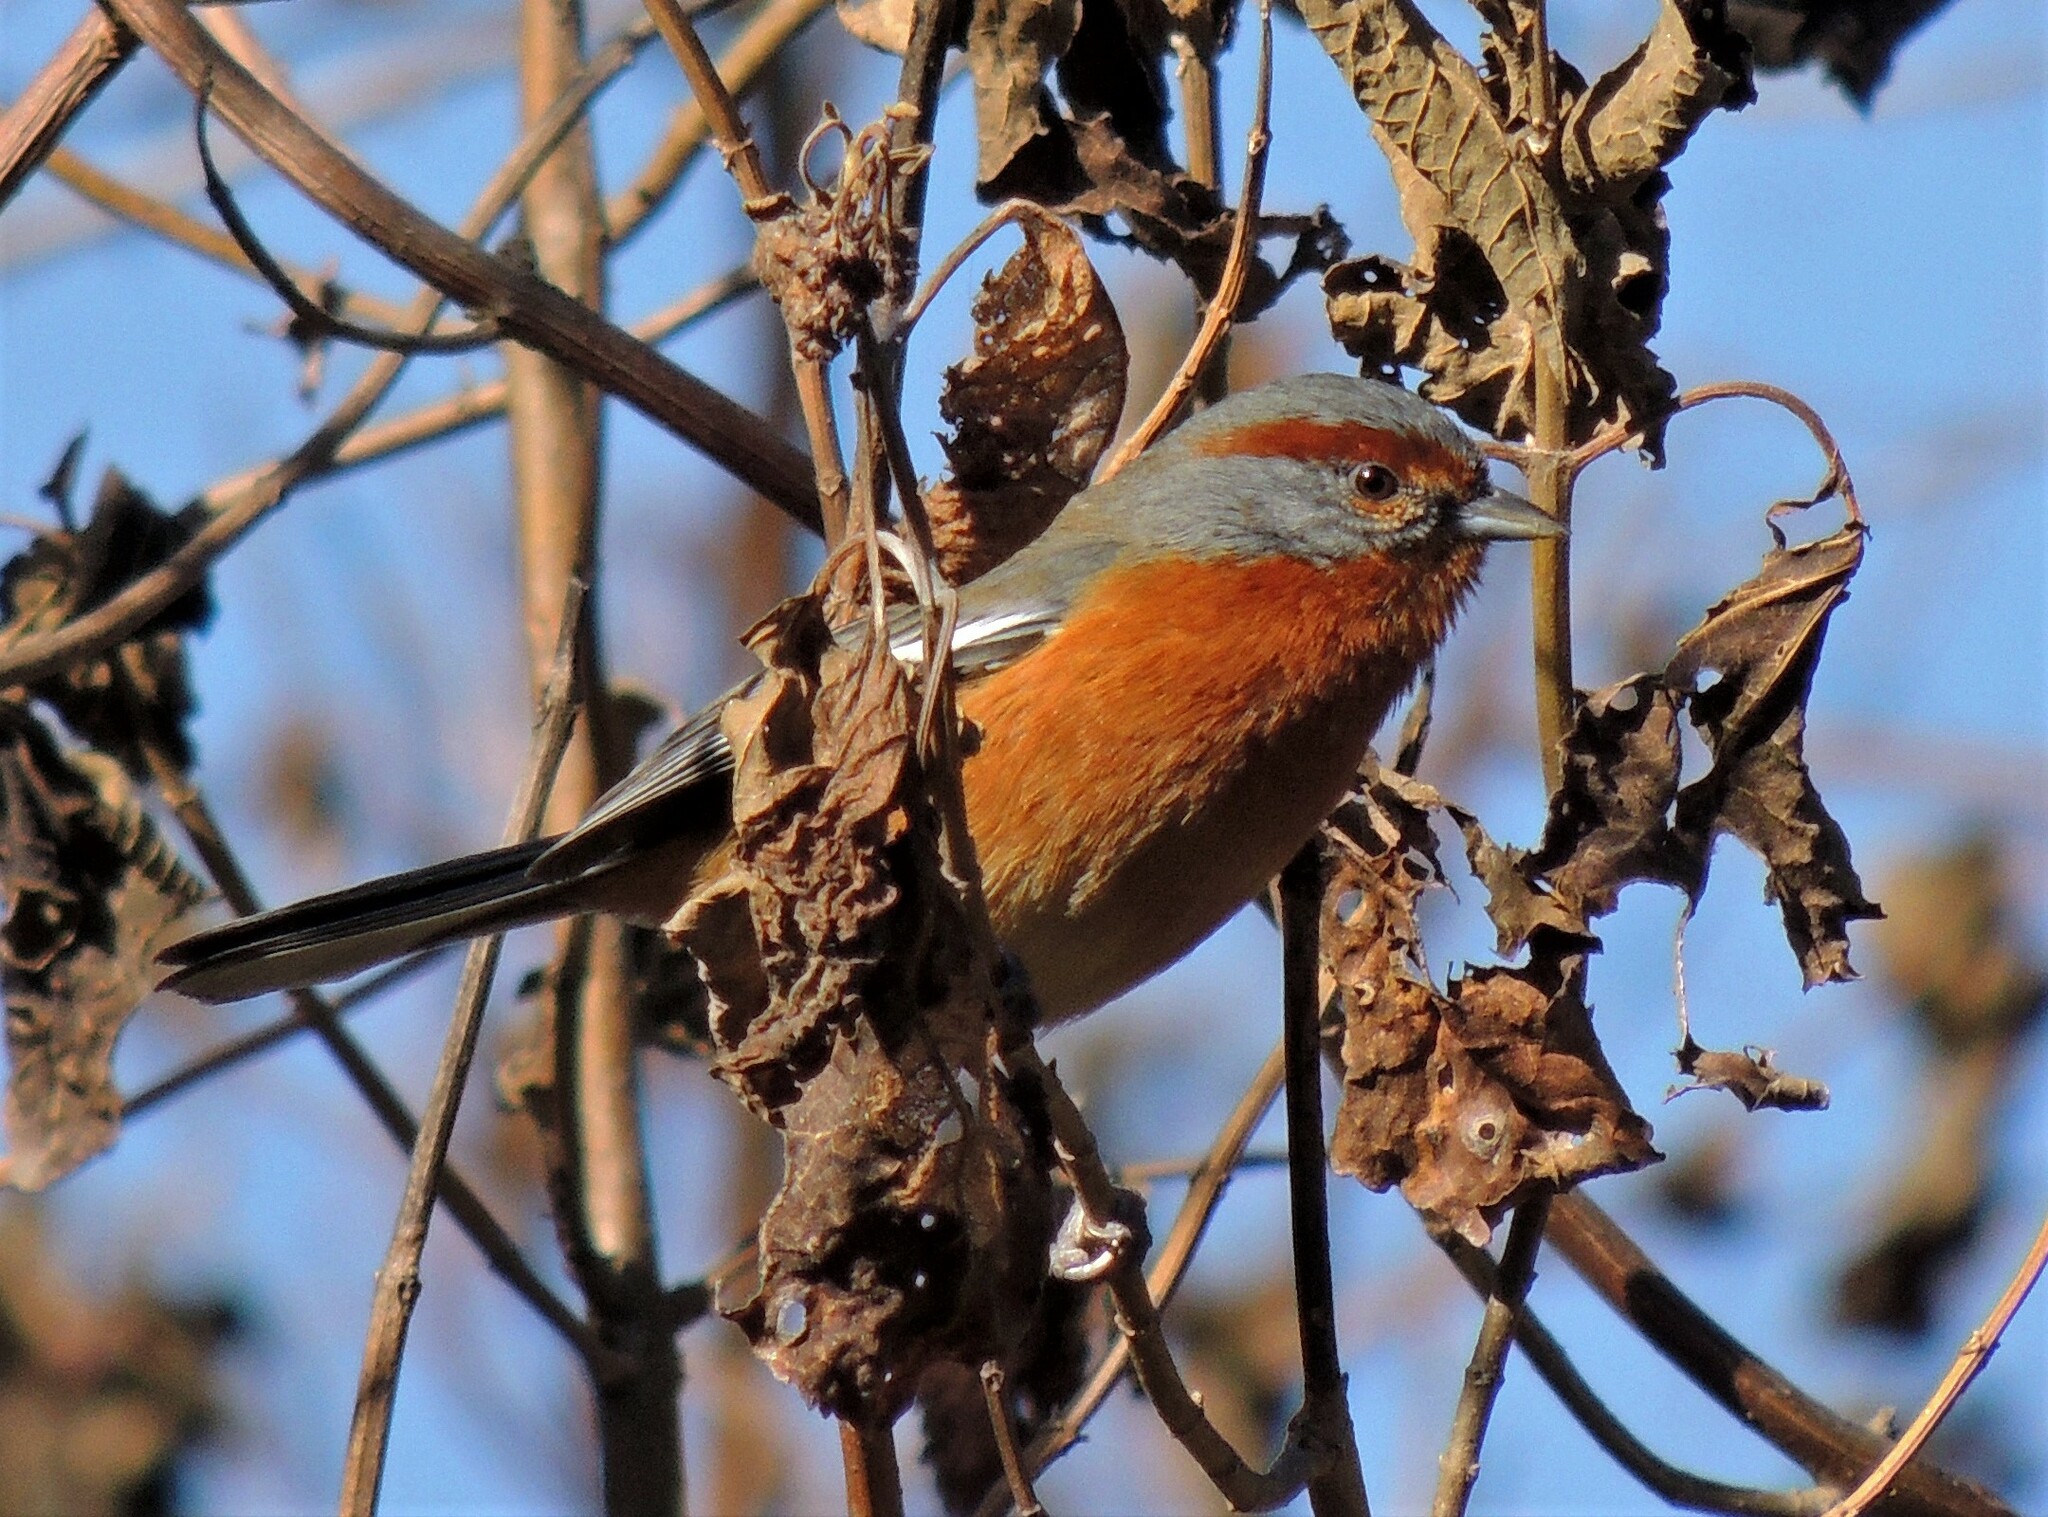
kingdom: Animalia
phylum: Chordata
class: Aves
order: Passeriformes
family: Thraupidae
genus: Microspingus
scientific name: Microspingus erythrophrys
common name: Rusty-browed warbling-finch
